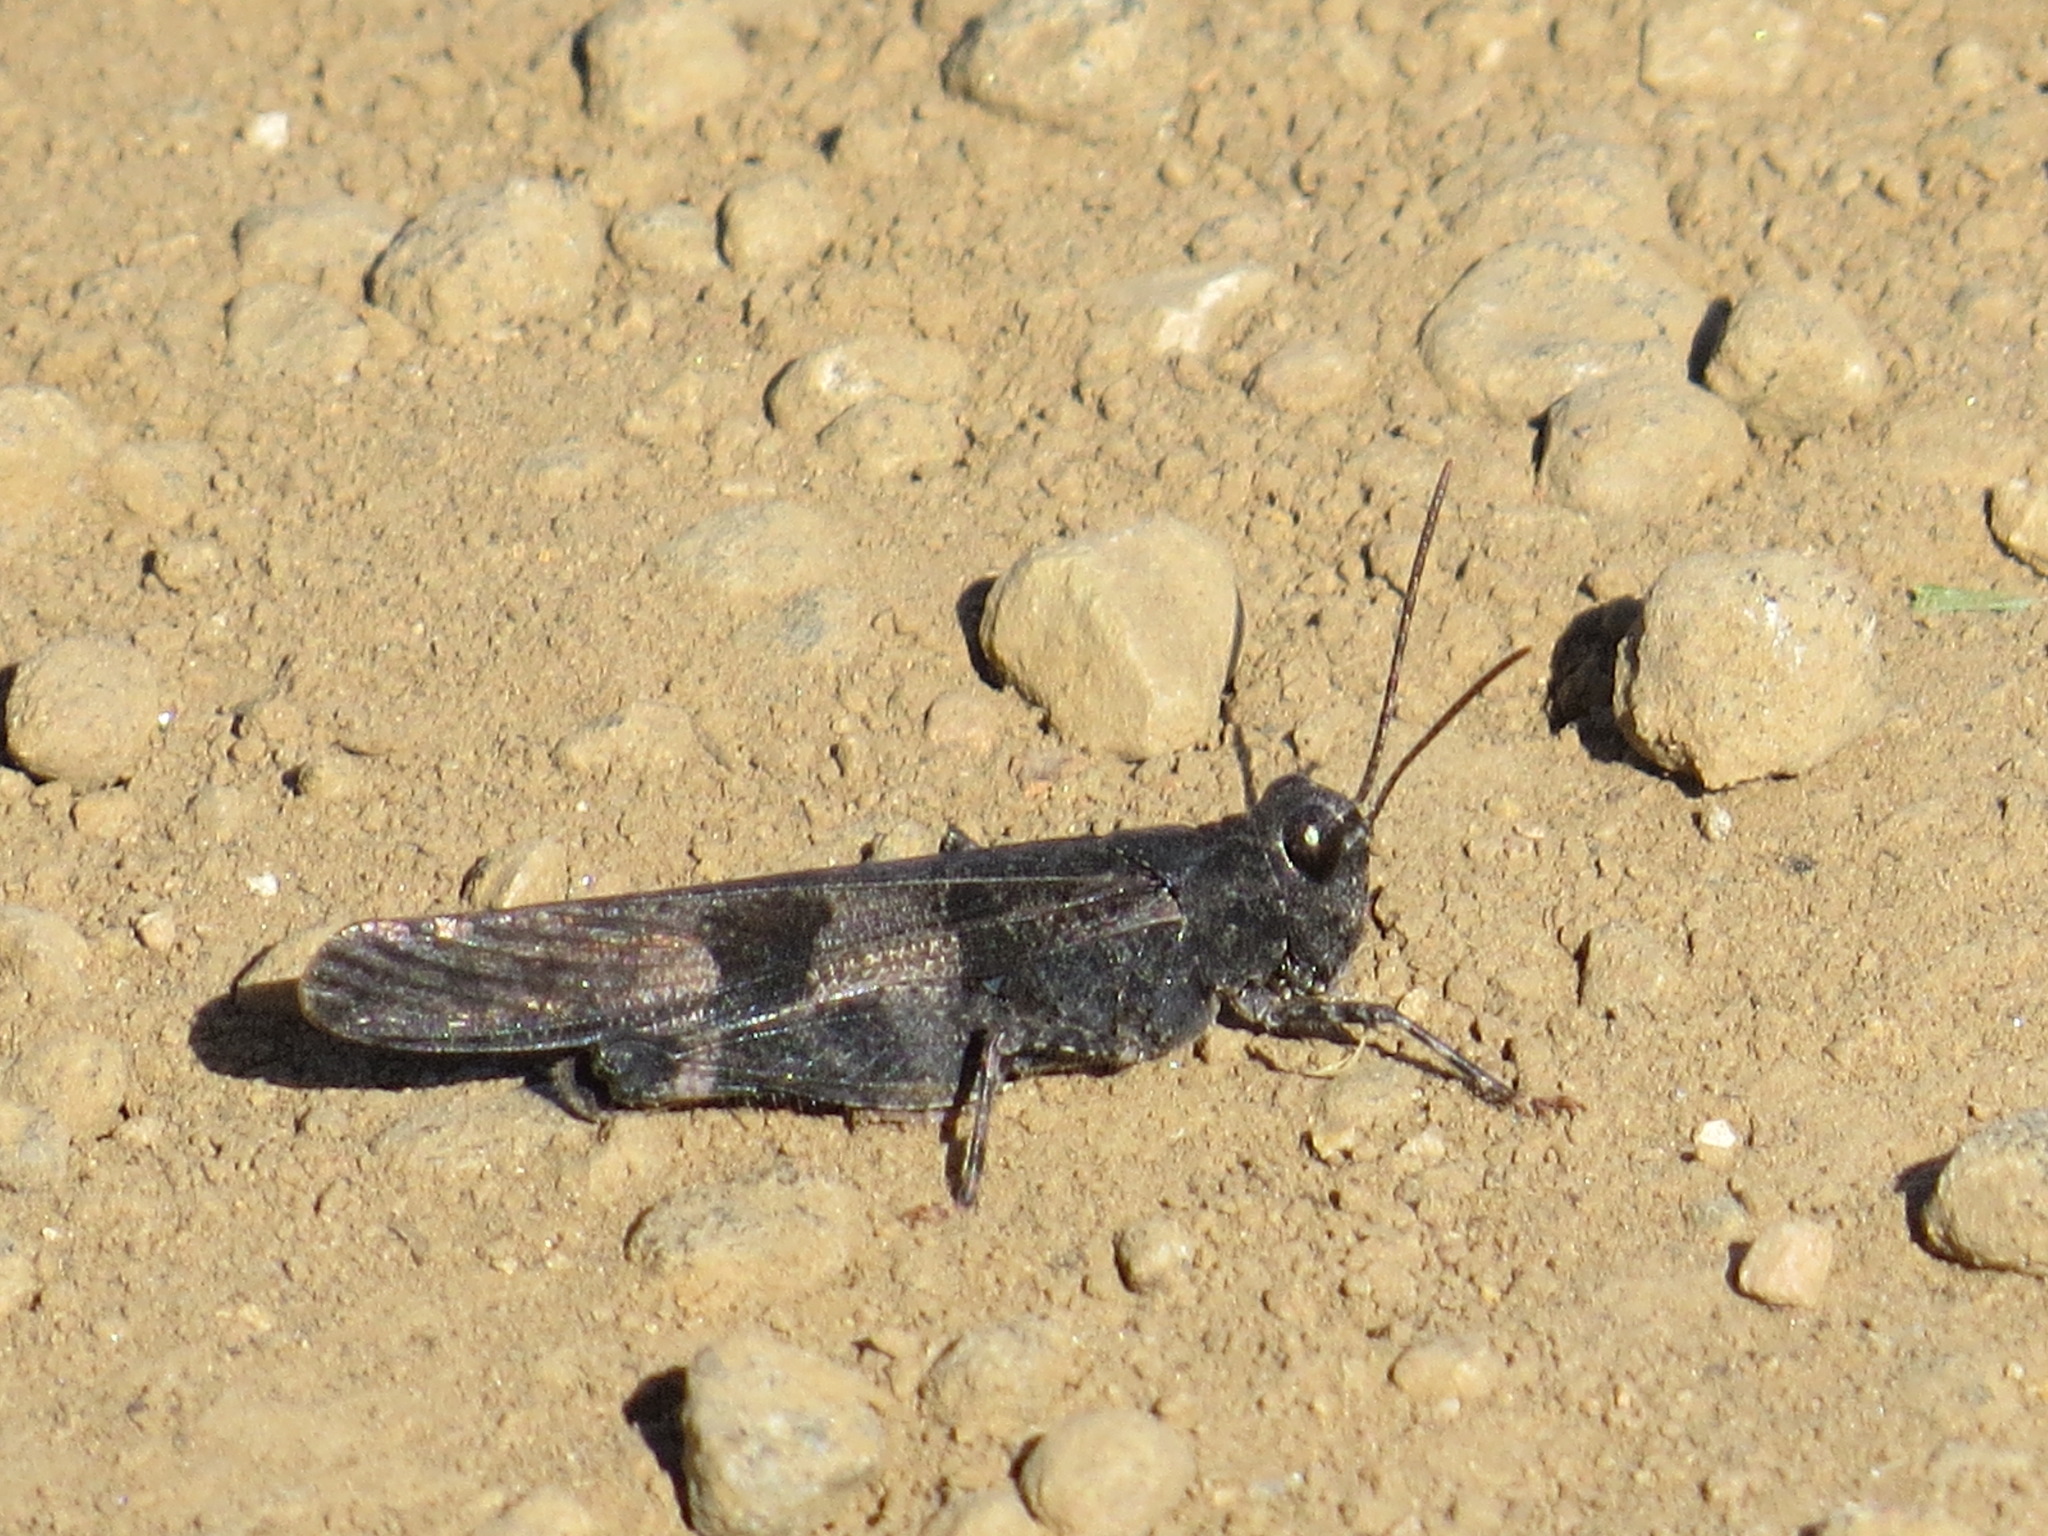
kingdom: Animalia
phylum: Arthropoda
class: Insecta
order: Orthoptera
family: Acrididae
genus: Trimerotropis
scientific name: Trimerotropis fontana
